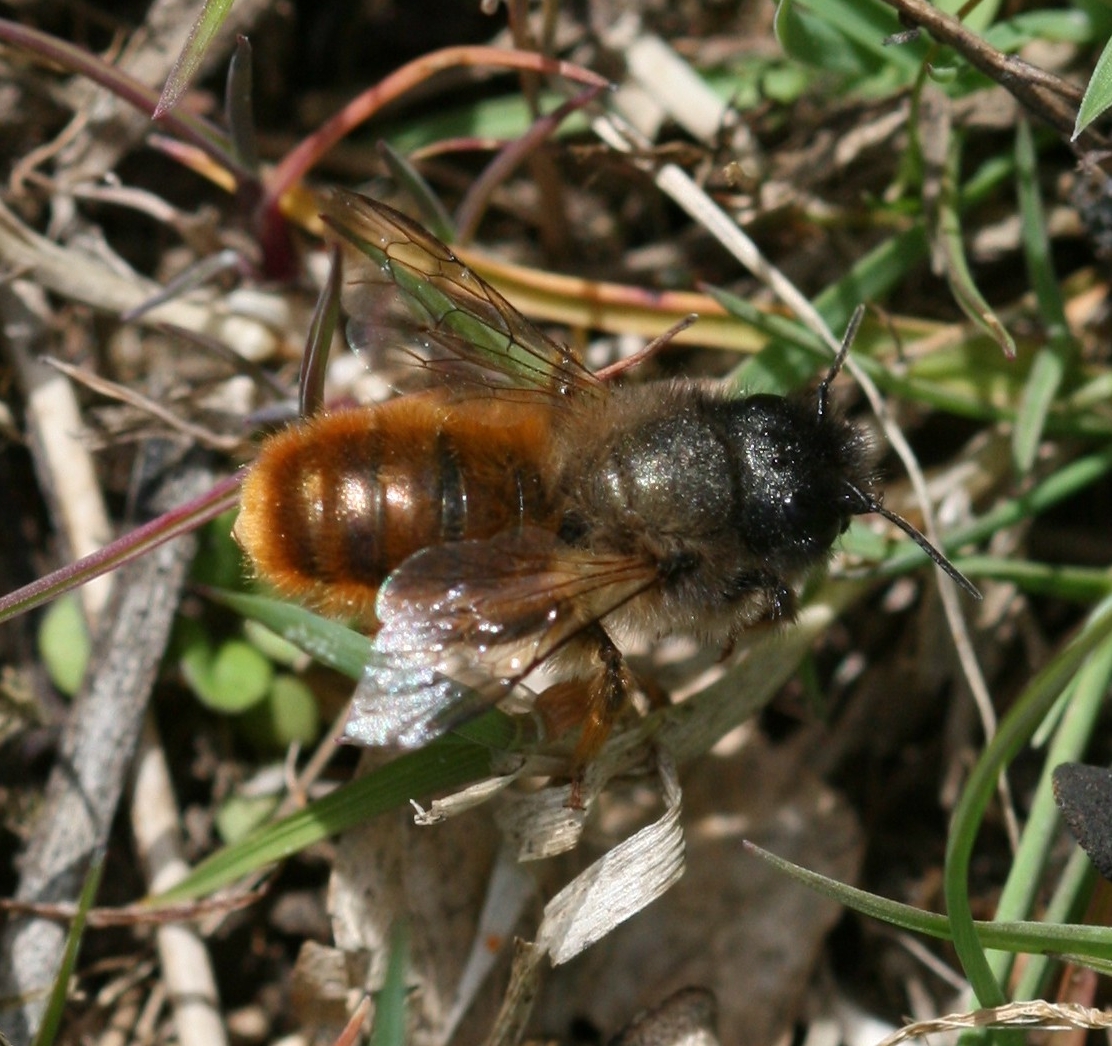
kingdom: Animalia
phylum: Arthropoda
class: Insecta
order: Hymenoptera
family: Megachilidae
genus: Osmia
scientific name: Osmia bicornis
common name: Red mason bee
